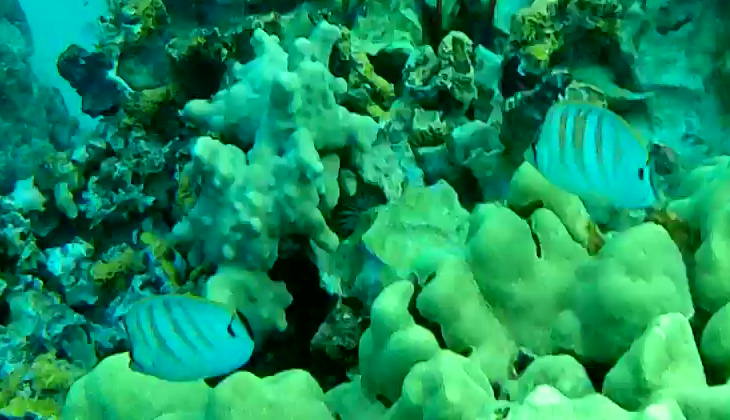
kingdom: Animalia
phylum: Chordata
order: Perciformes
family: Chaetodontidae
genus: Chaetodon
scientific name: Chaetodon multicinctus
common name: Multiband butterflyfish
